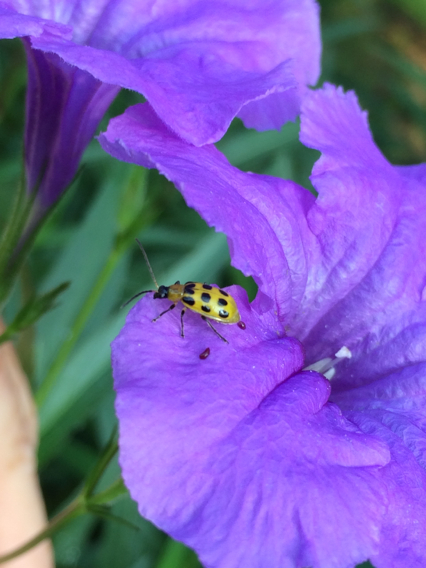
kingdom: Animalia
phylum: Arthropoda
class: Insecta
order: Coleoptera
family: Chrysomelidae
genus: Diabrotica
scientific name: Diabrotica undecimpunctata
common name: Spotted cucumber beetle
